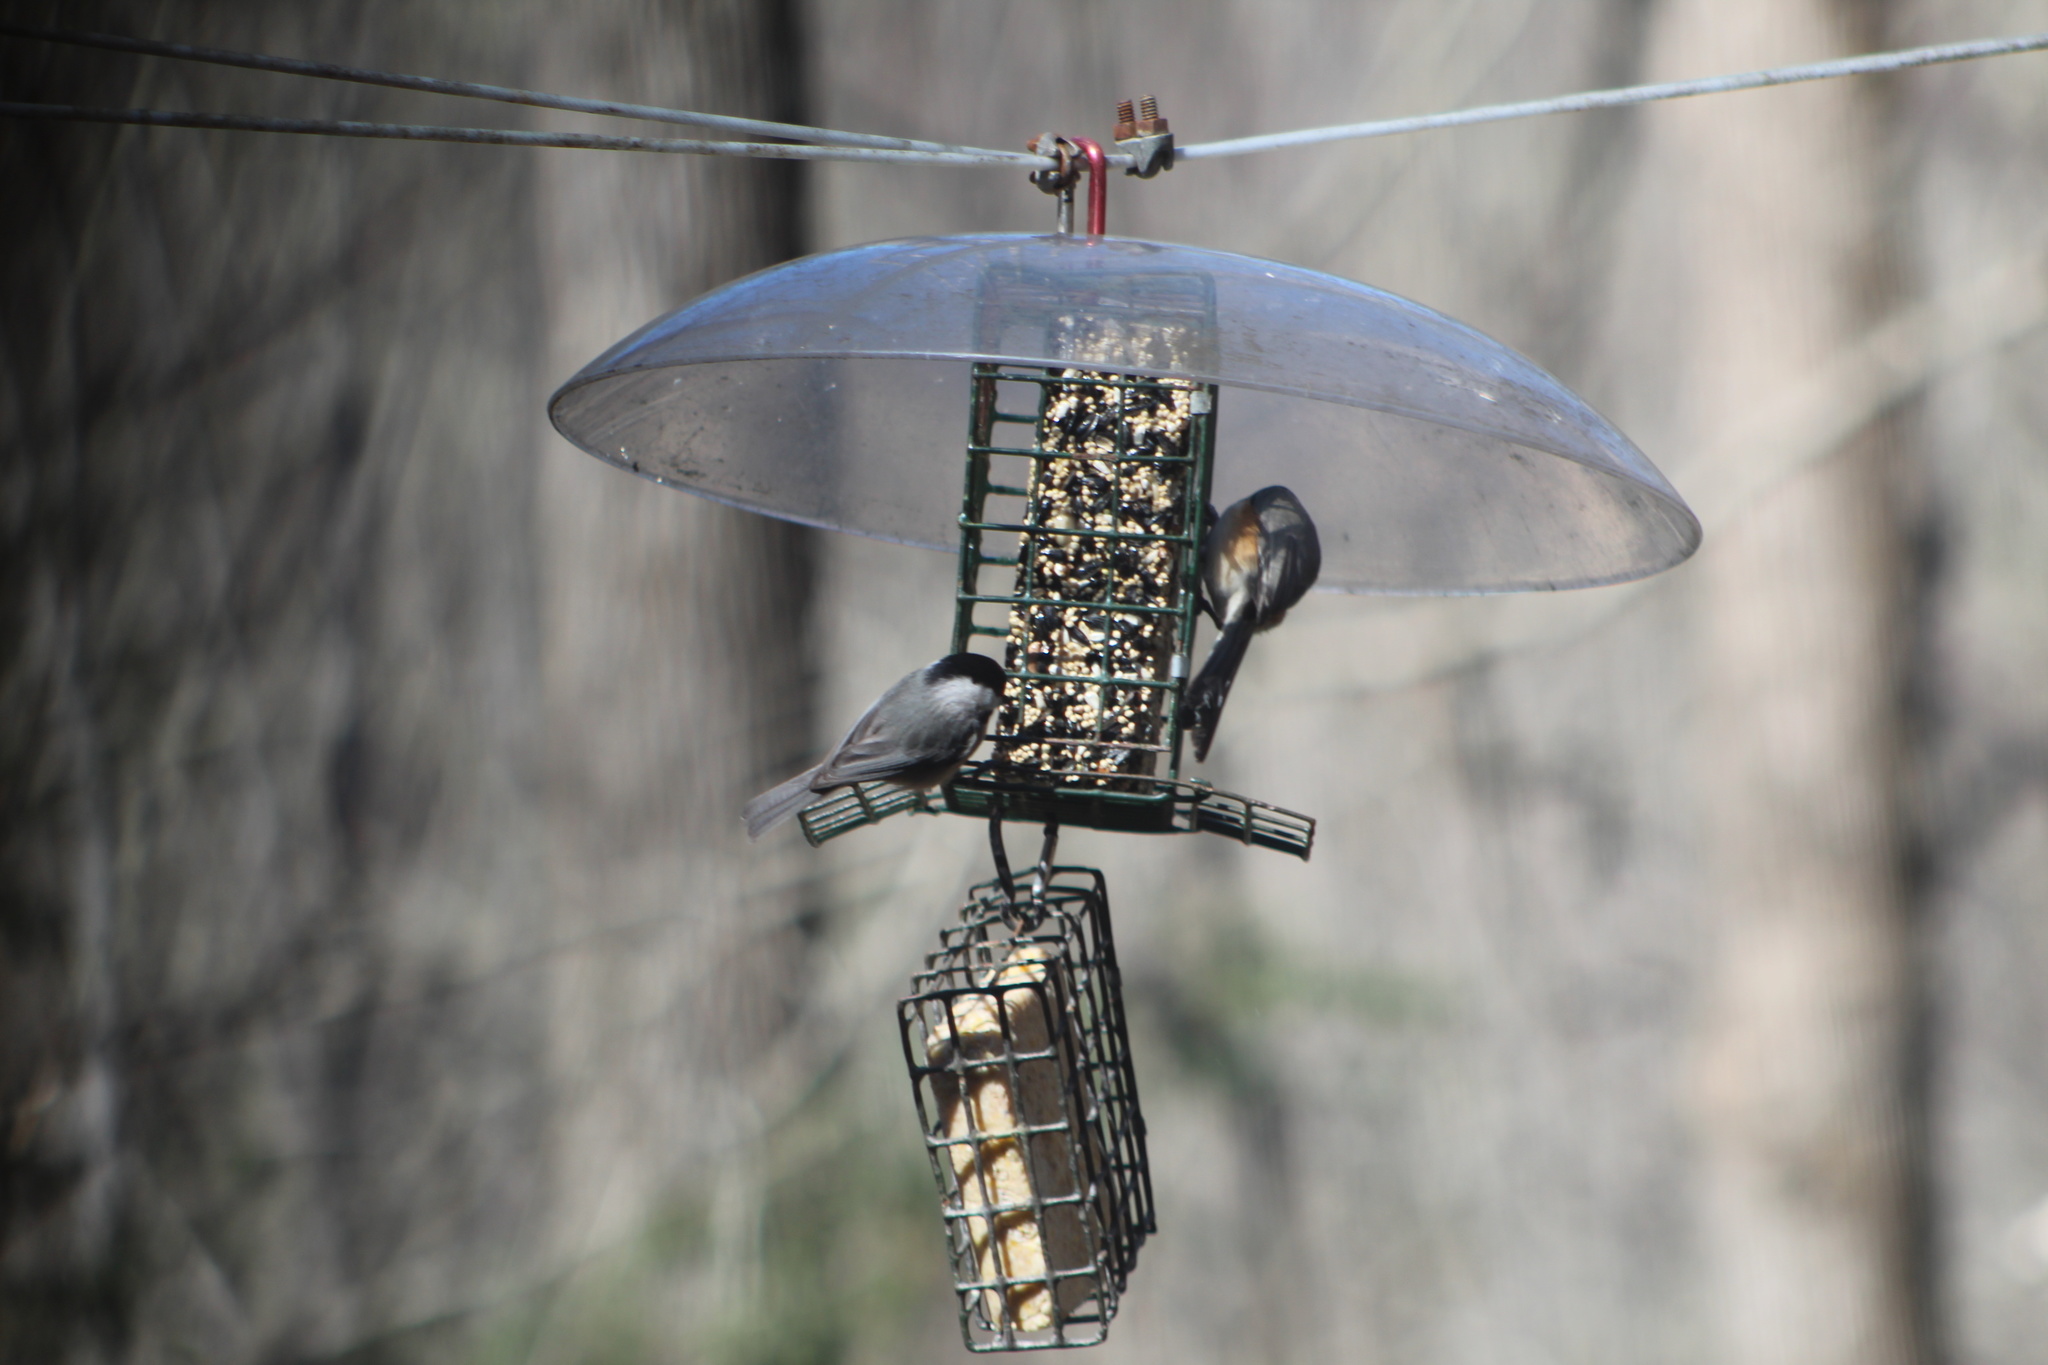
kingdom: Animalia
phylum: Chordata
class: Aves
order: Passeriformes
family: Paridae
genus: Poecile
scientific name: Poecile carolinensis
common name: Carolina chickadee
